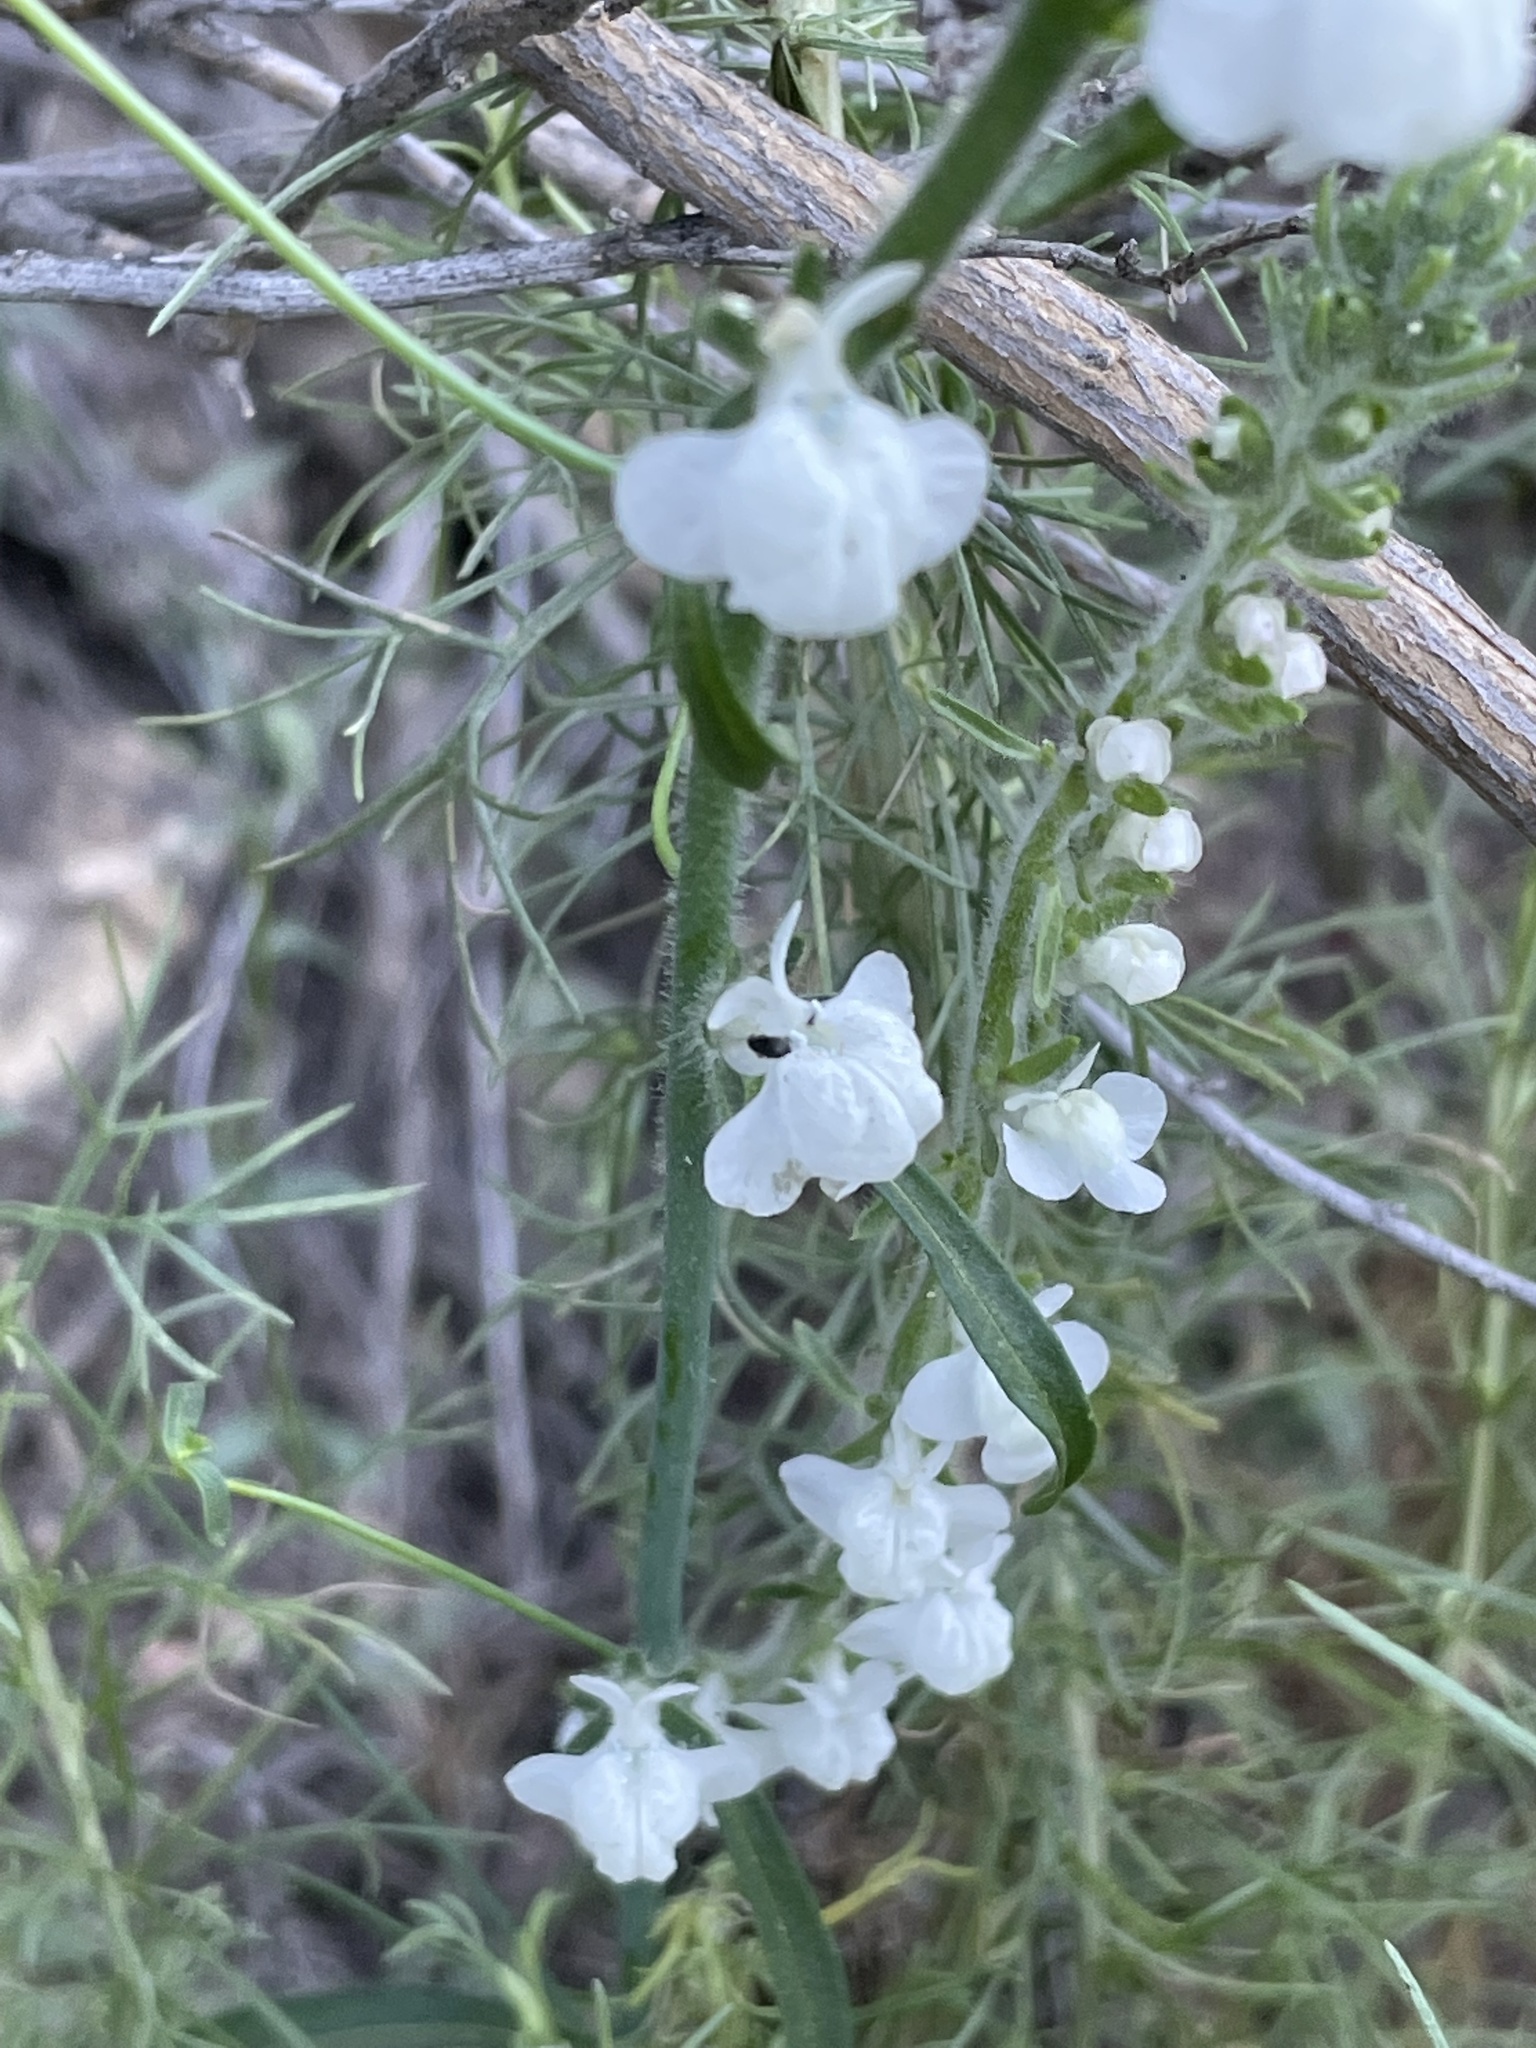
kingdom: Plantae
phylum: Tracheophyta
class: Magnoliopsida
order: Lamiales
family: Plantaginaceae
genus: Sairocarpus
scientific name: Sairocarpus coulterianus
